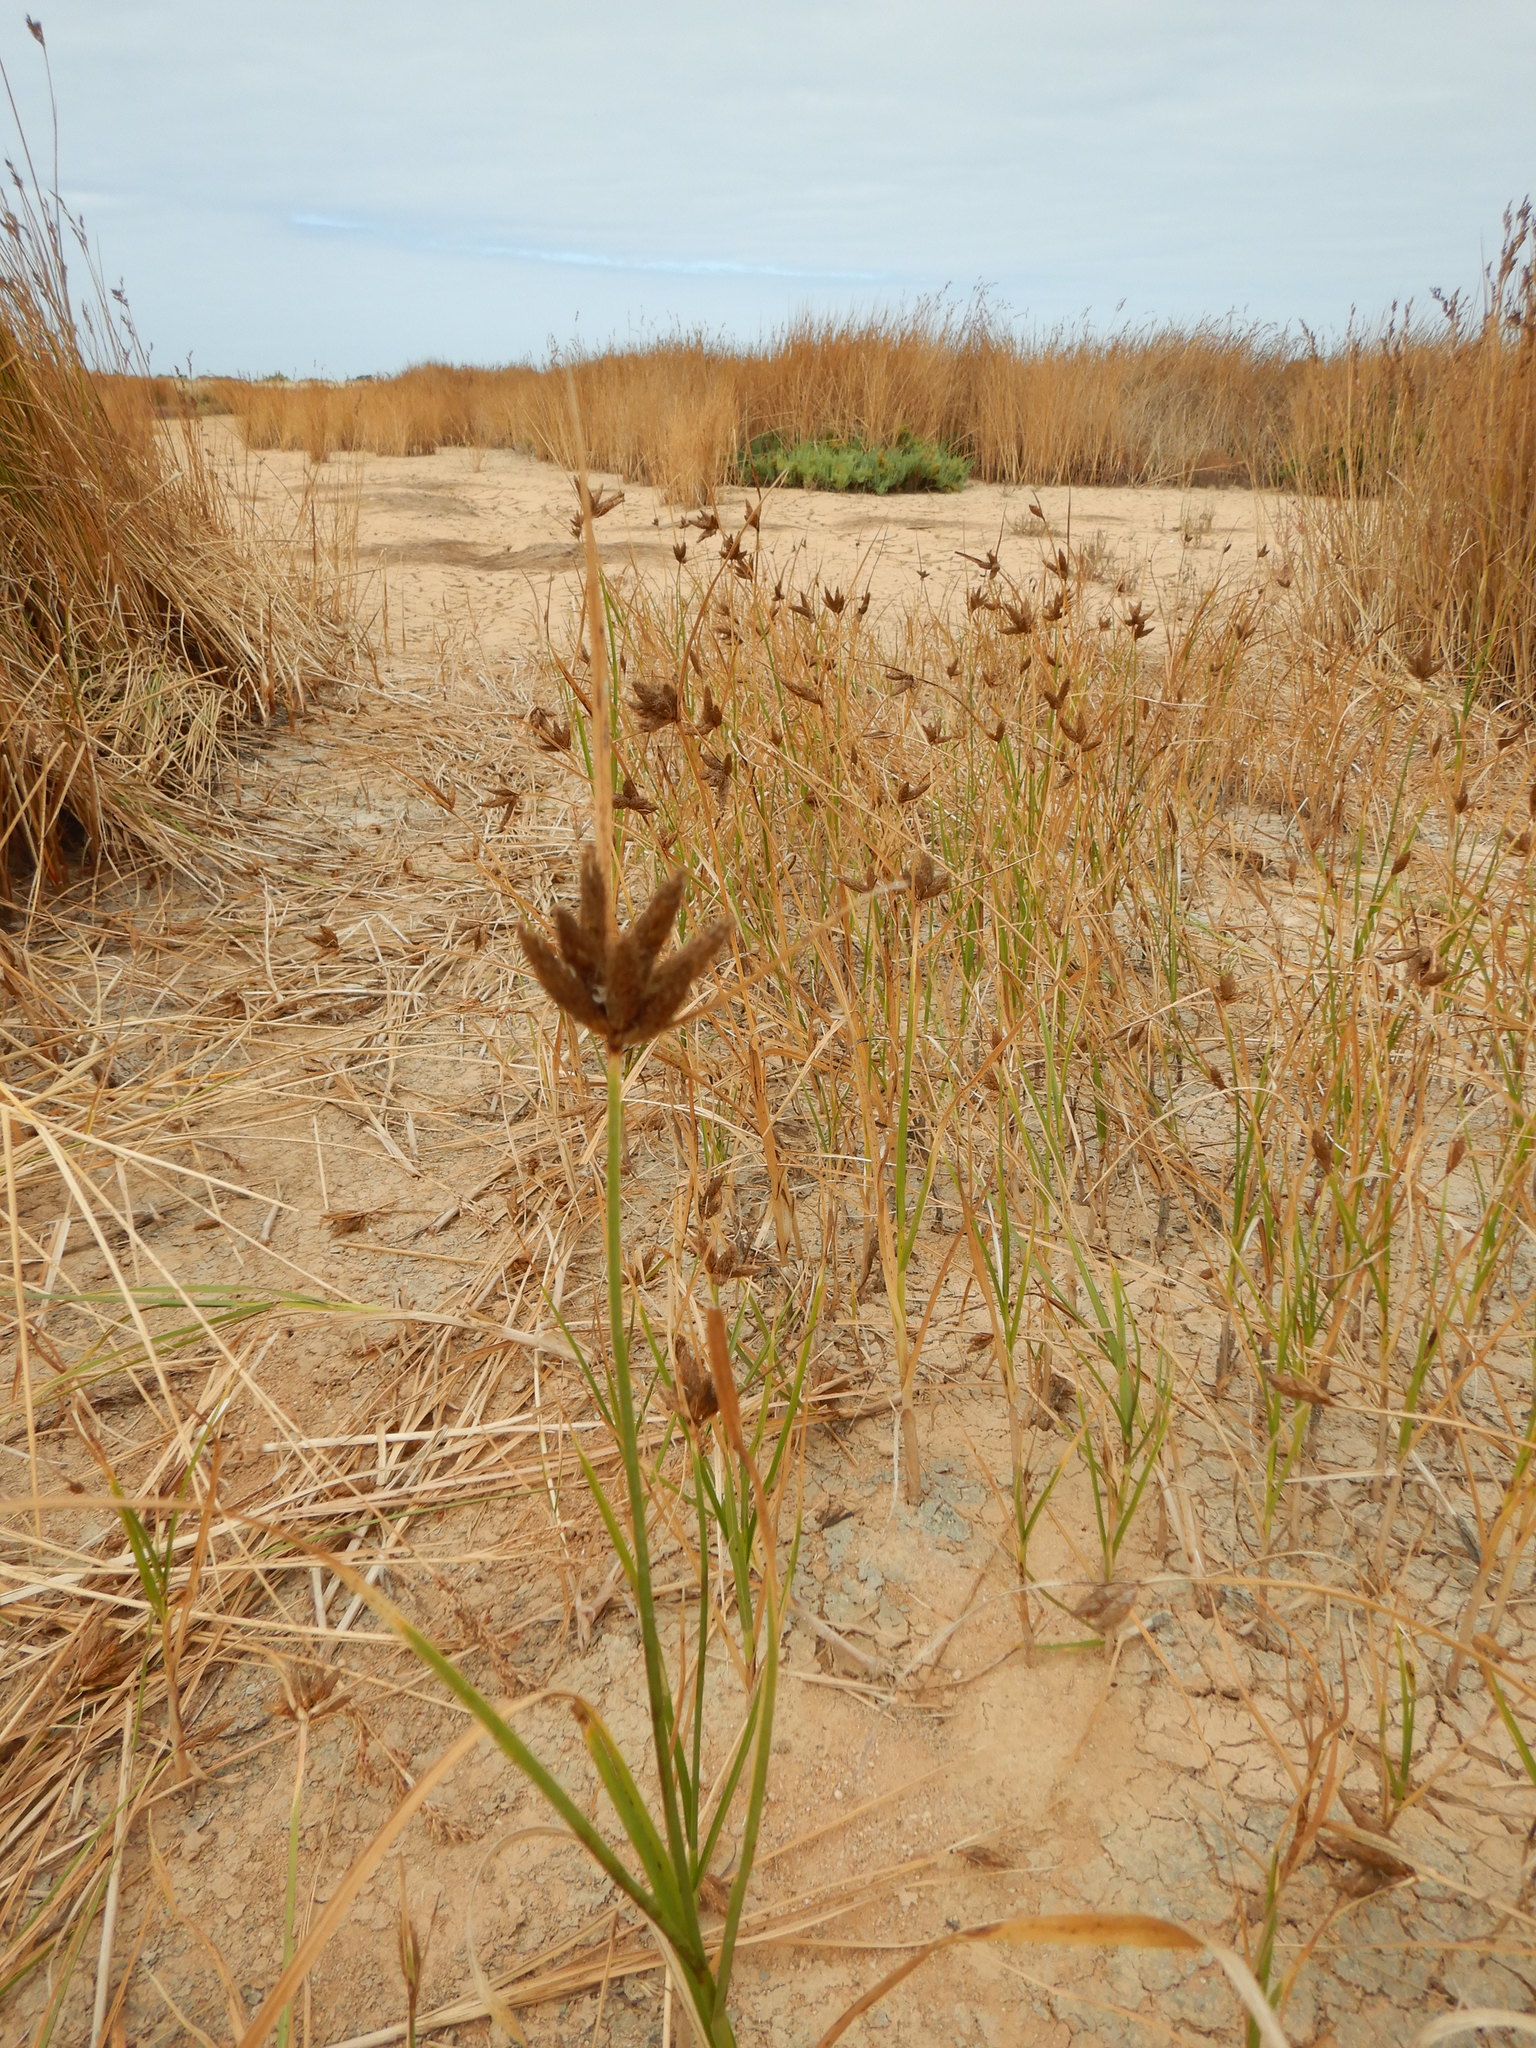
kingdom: Plantae
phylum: Tracheophyta
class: Liliopsida
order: Poales
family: Cyperaceae
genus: Bolboschoenus
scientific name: Bolboschoenus maritimus
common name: Sea club-rush
